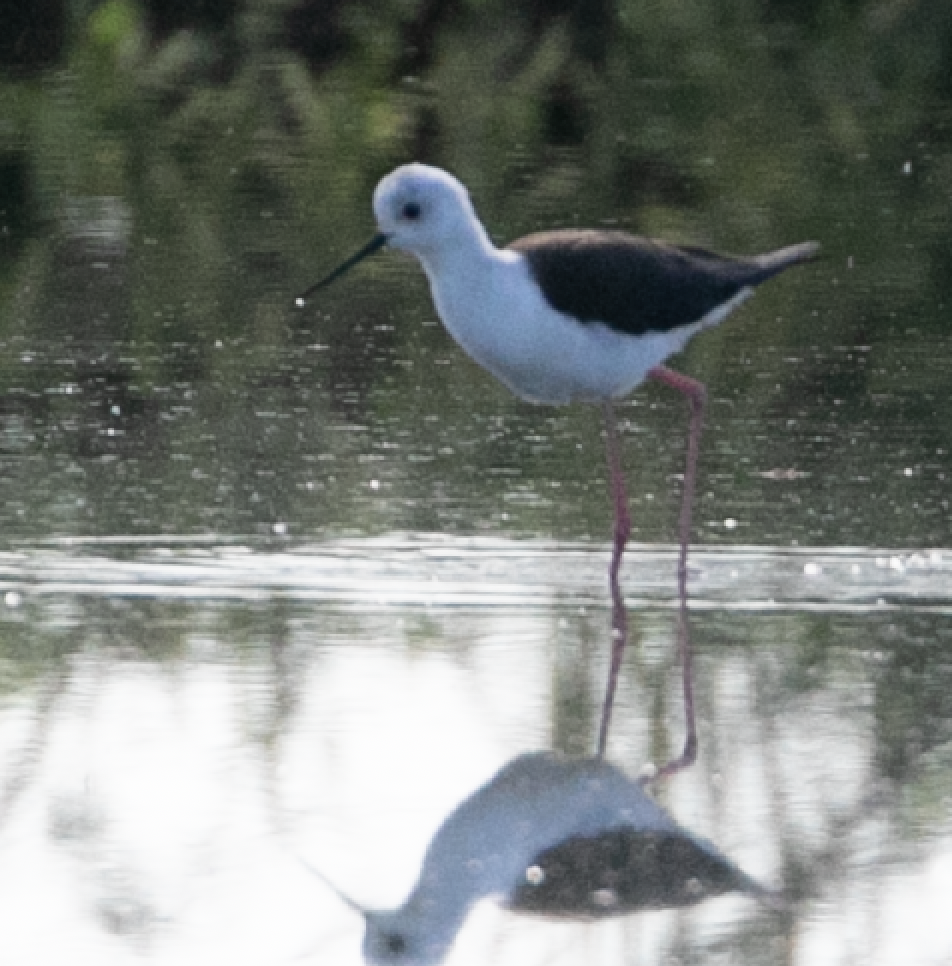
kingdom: Animalia
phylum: Chordata
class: Aves
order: Charadriiformes
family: Recurvirostridae
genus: Himantopus
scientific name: Himantopus himantopus
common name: Black-winged stilt
